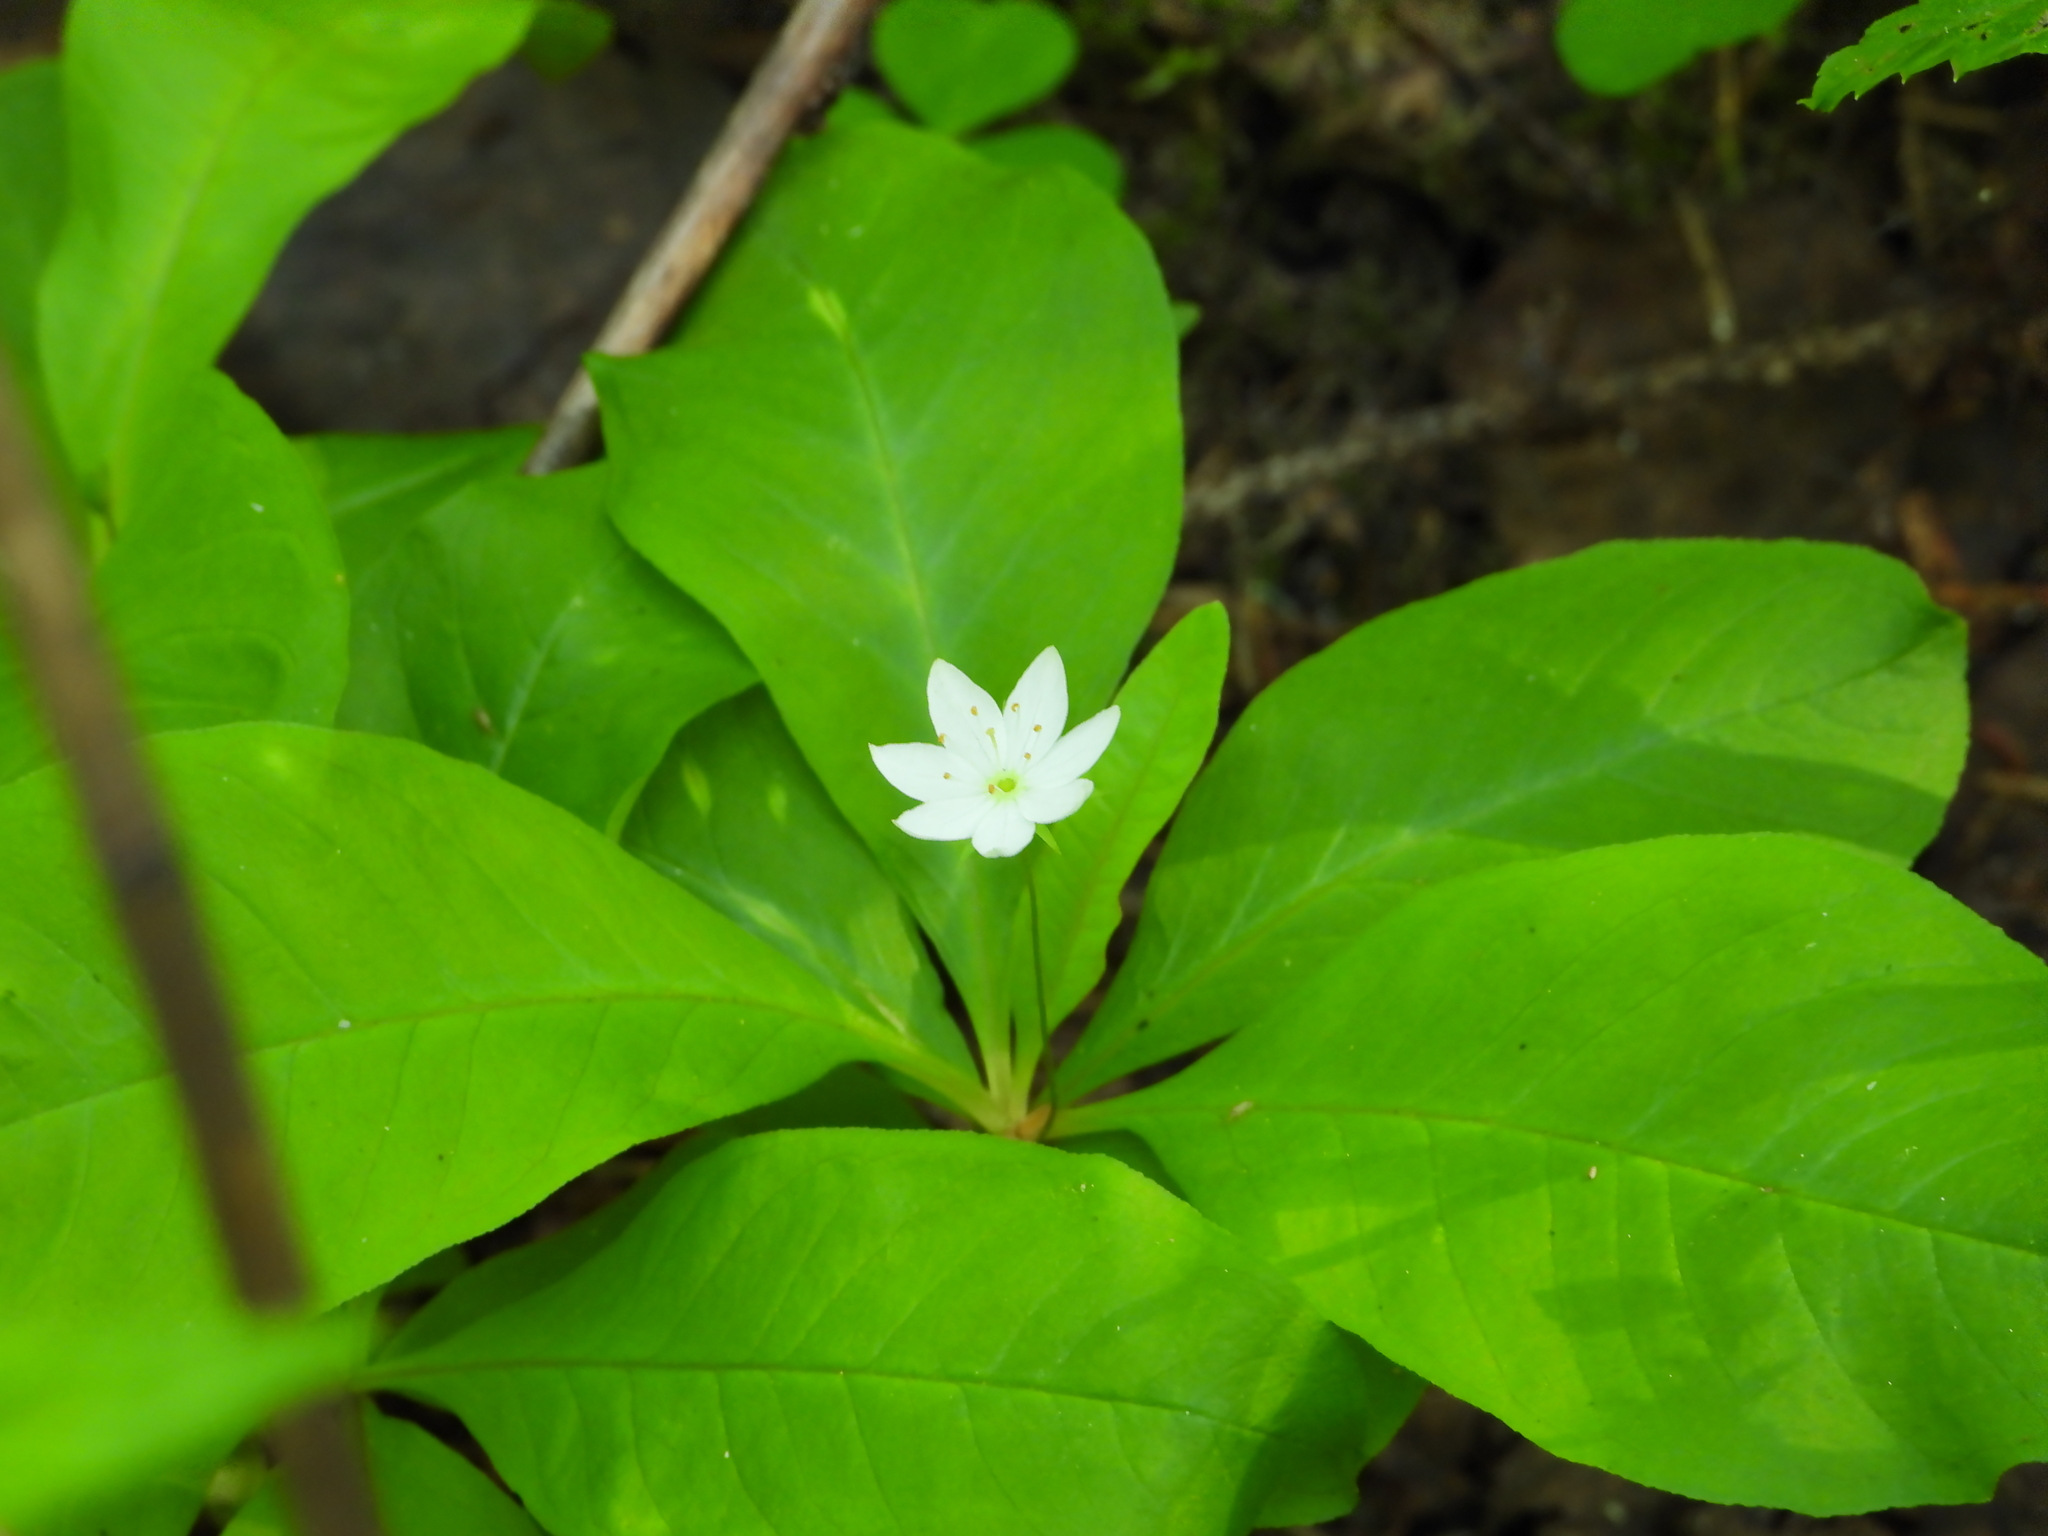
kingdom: Plantae
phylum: Tracheophyta
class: Magnoliopsida
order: Ericales
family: Primulaceae
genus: Lysimachia
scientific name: Lysimachia europaea
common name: Arctic starflower
